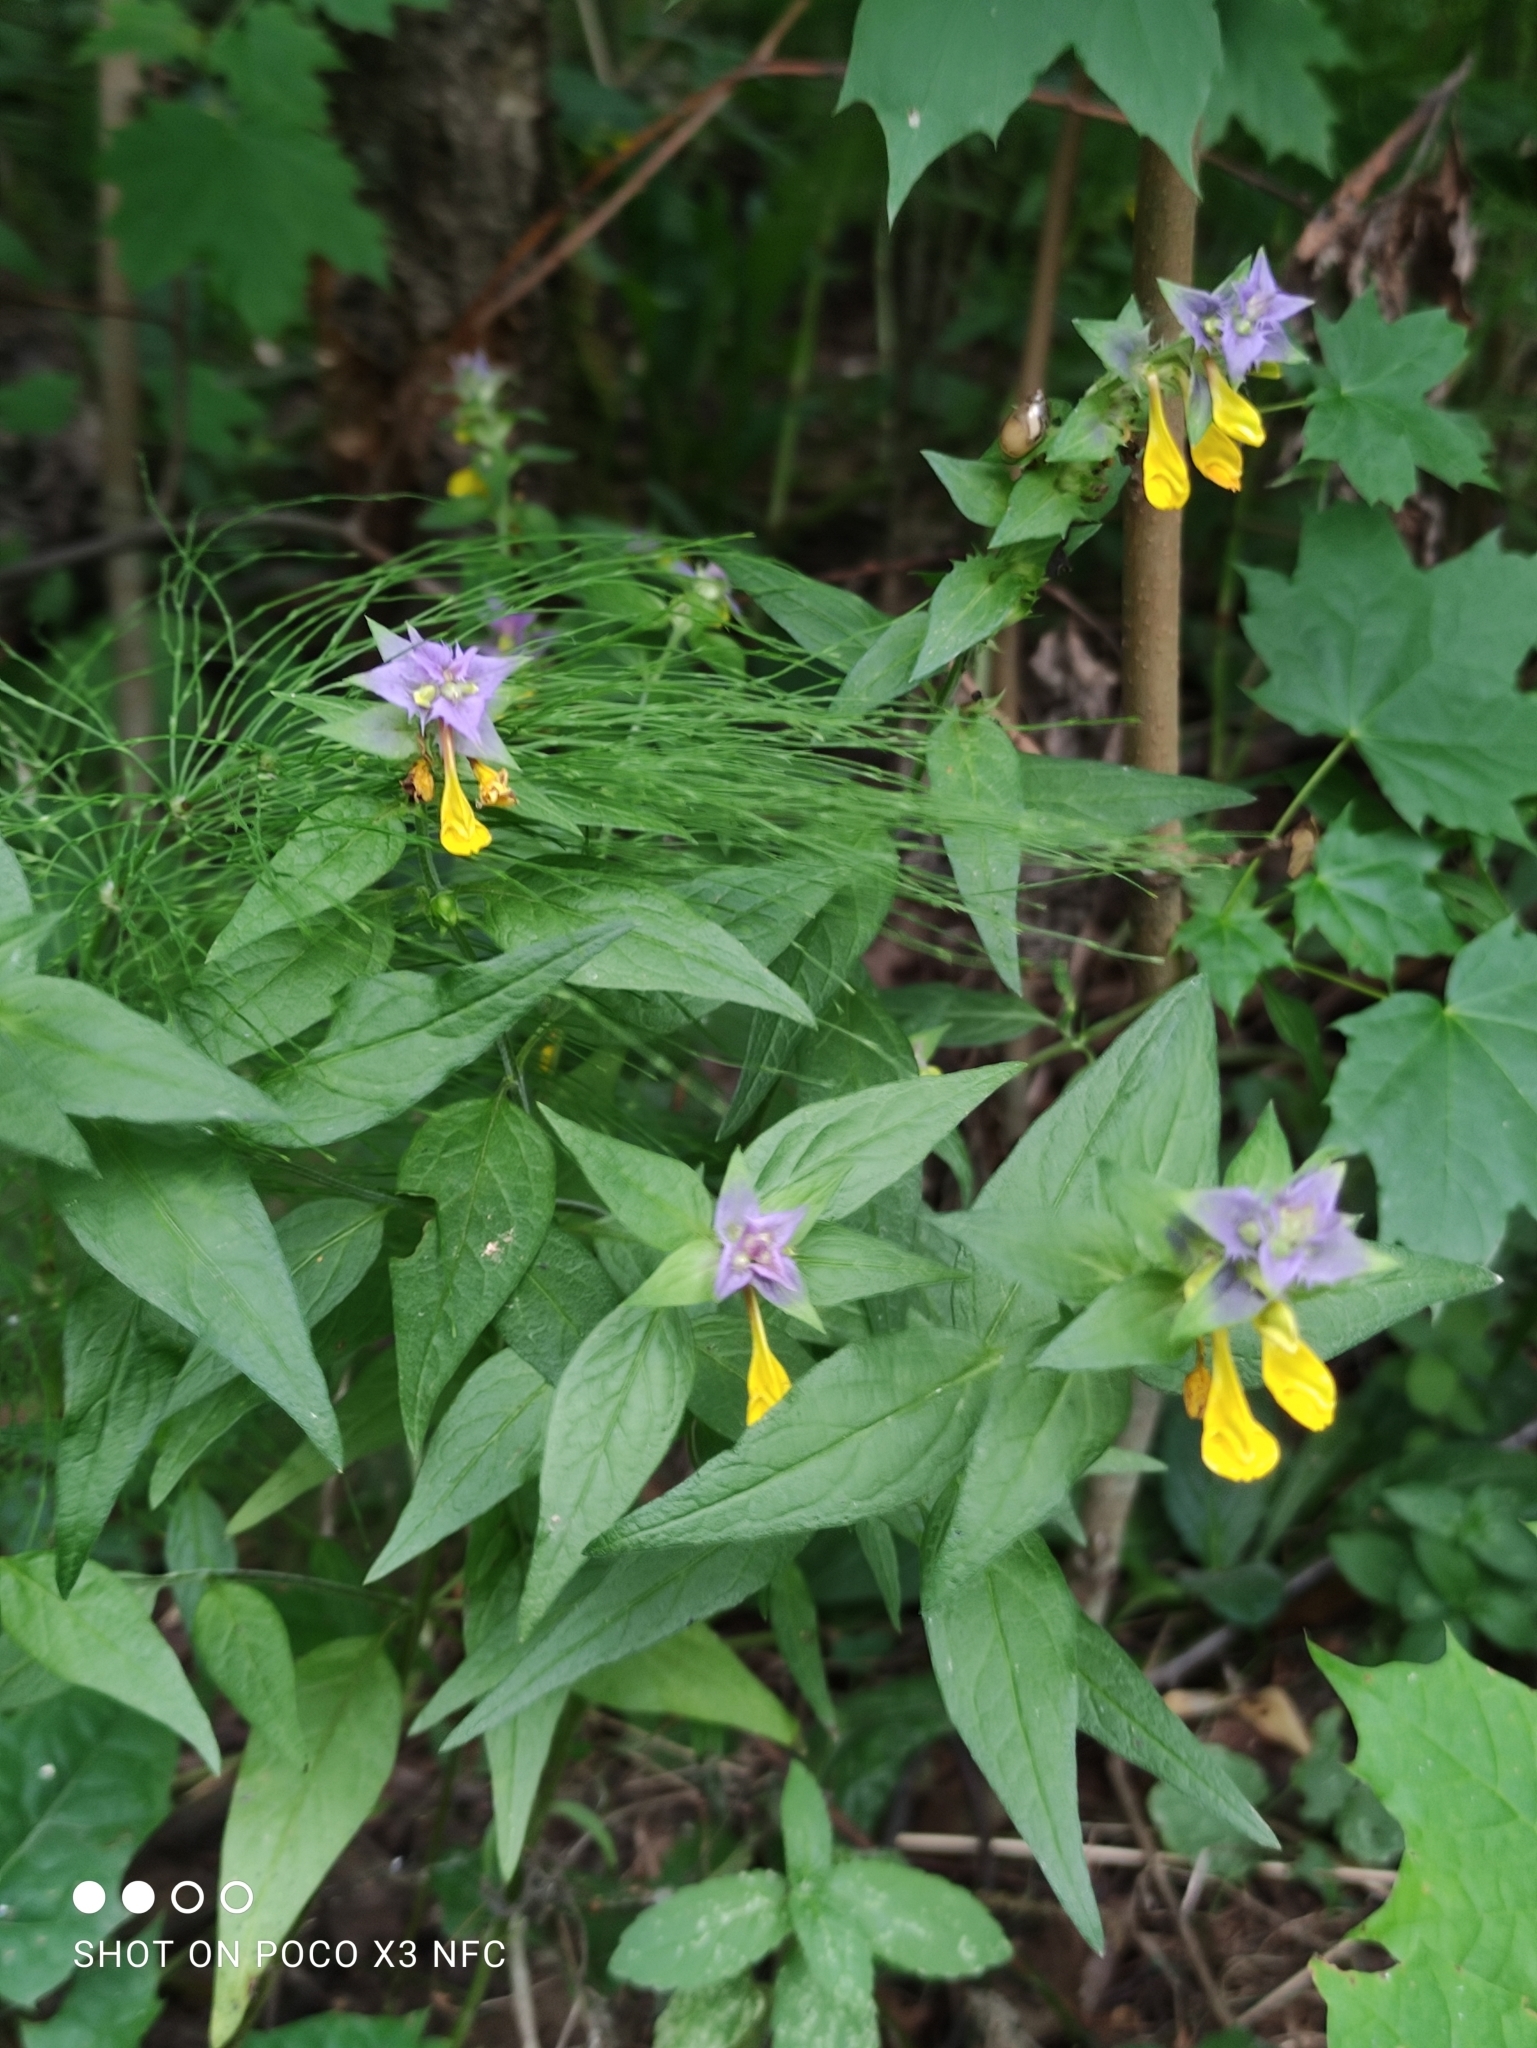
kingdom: Plantae
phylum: Tracheophyta
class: Magnoliopsida
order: Lamiales
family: Orobanchaceae
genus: Melampyrum
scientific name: Melampyrum nemorosum
